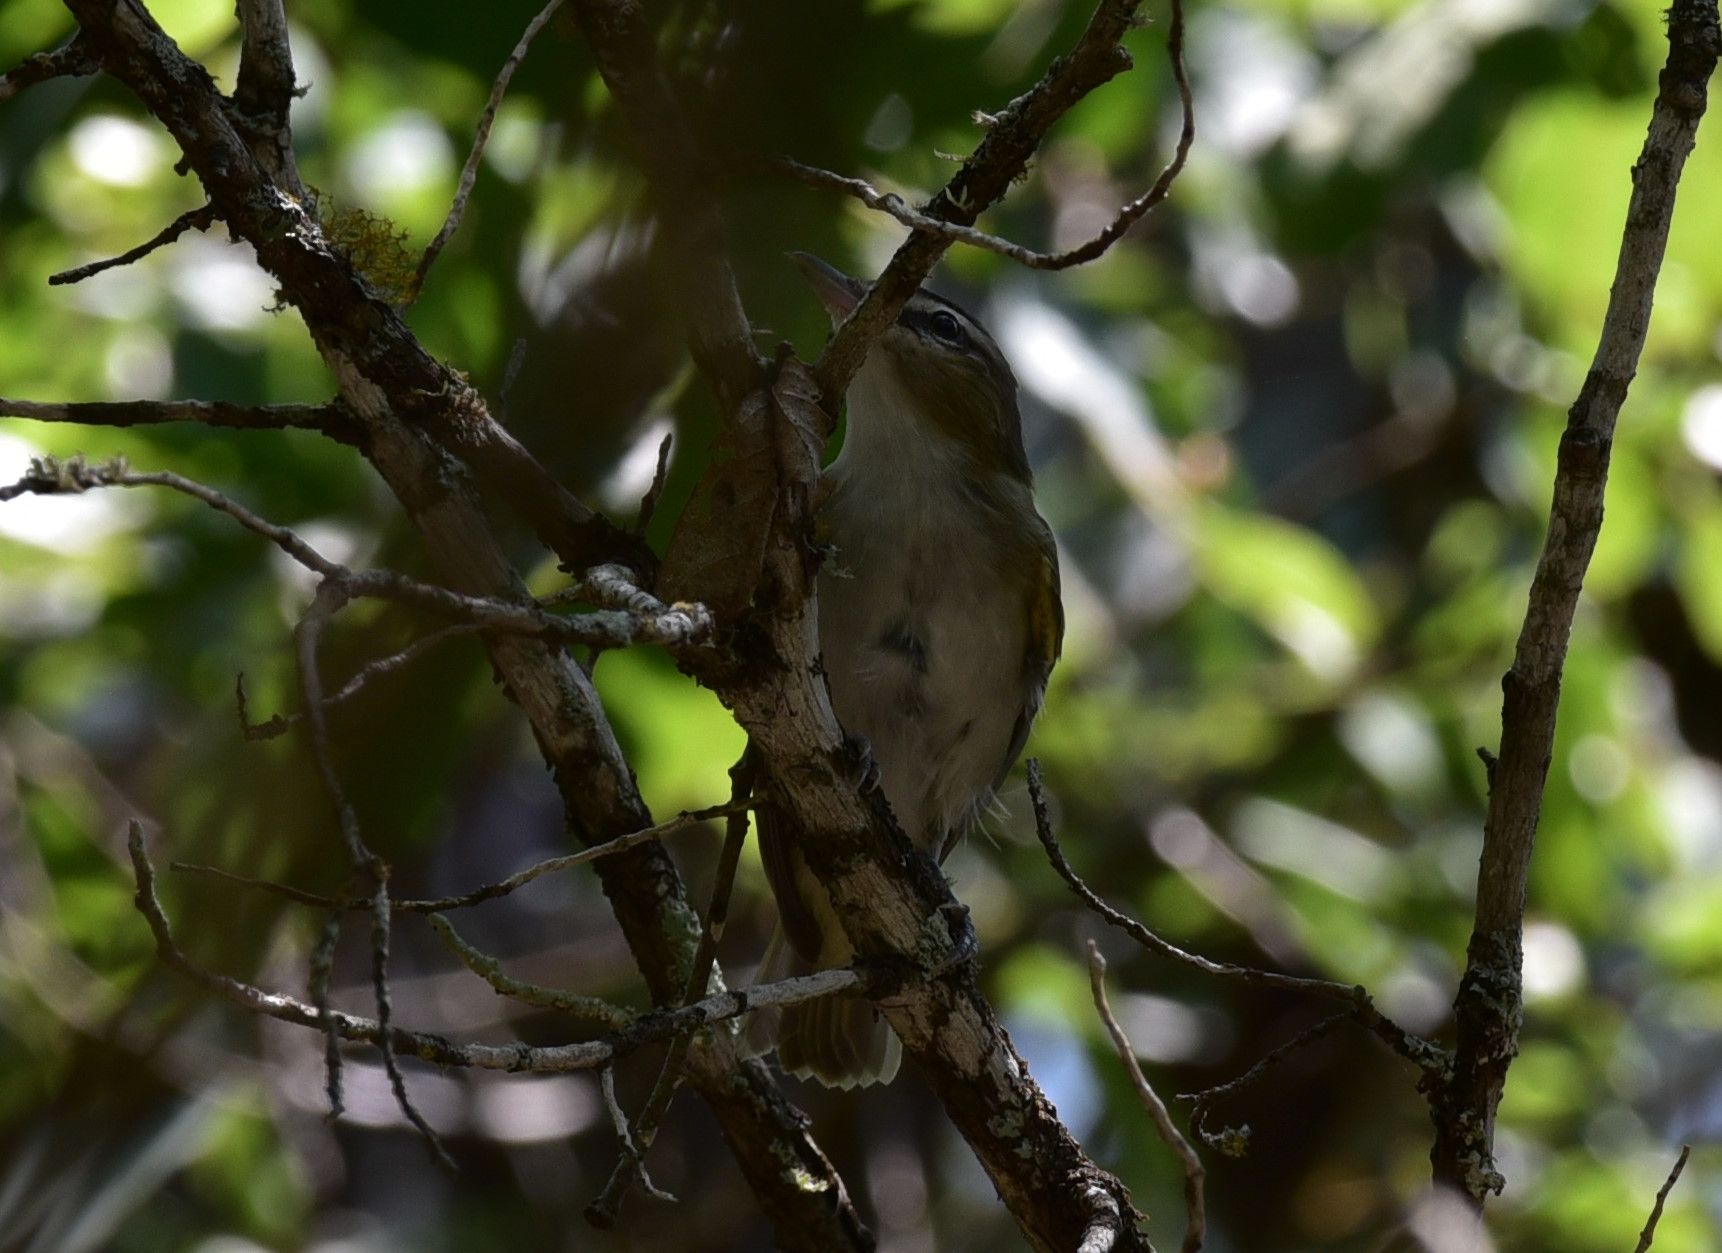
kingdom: Animalia
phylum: Chordata
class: Aves
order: Passeriformes
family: Vireonidae
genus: Vireo
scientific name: Vireo olivaceus
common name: Red-eyed vireo
